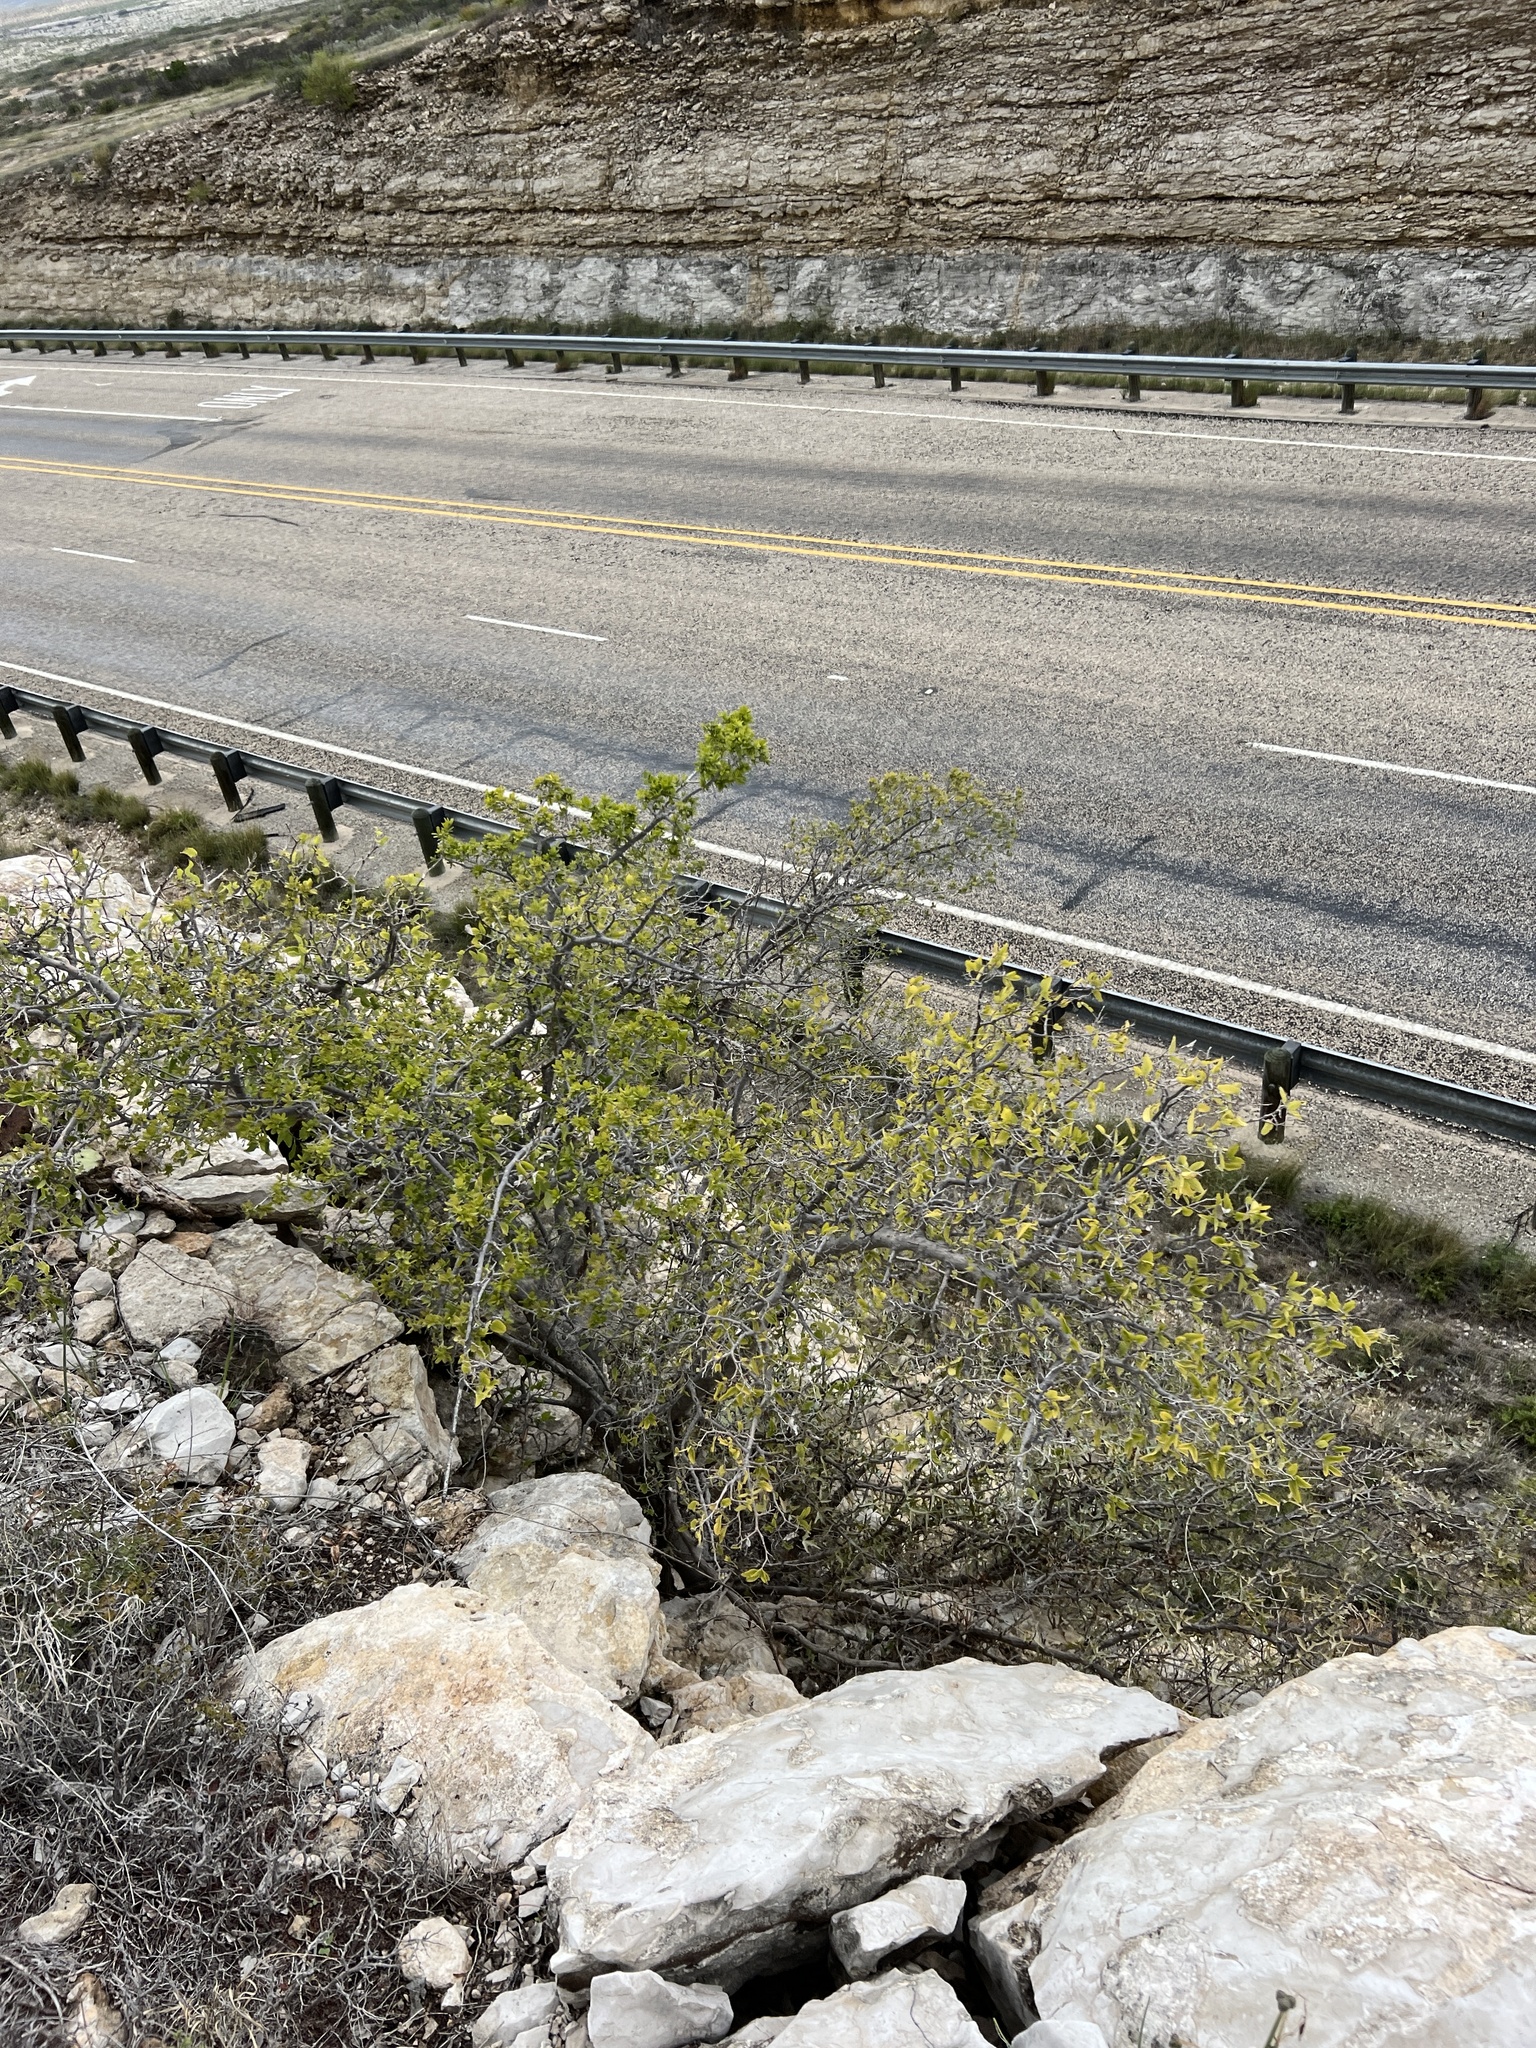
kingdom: Plantae
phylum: Tracheophyta
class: Magnoliopsida
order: Rosales
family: Cannabaceae
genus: Celtis
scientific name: Celtis pallida
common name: Desert hackberry
